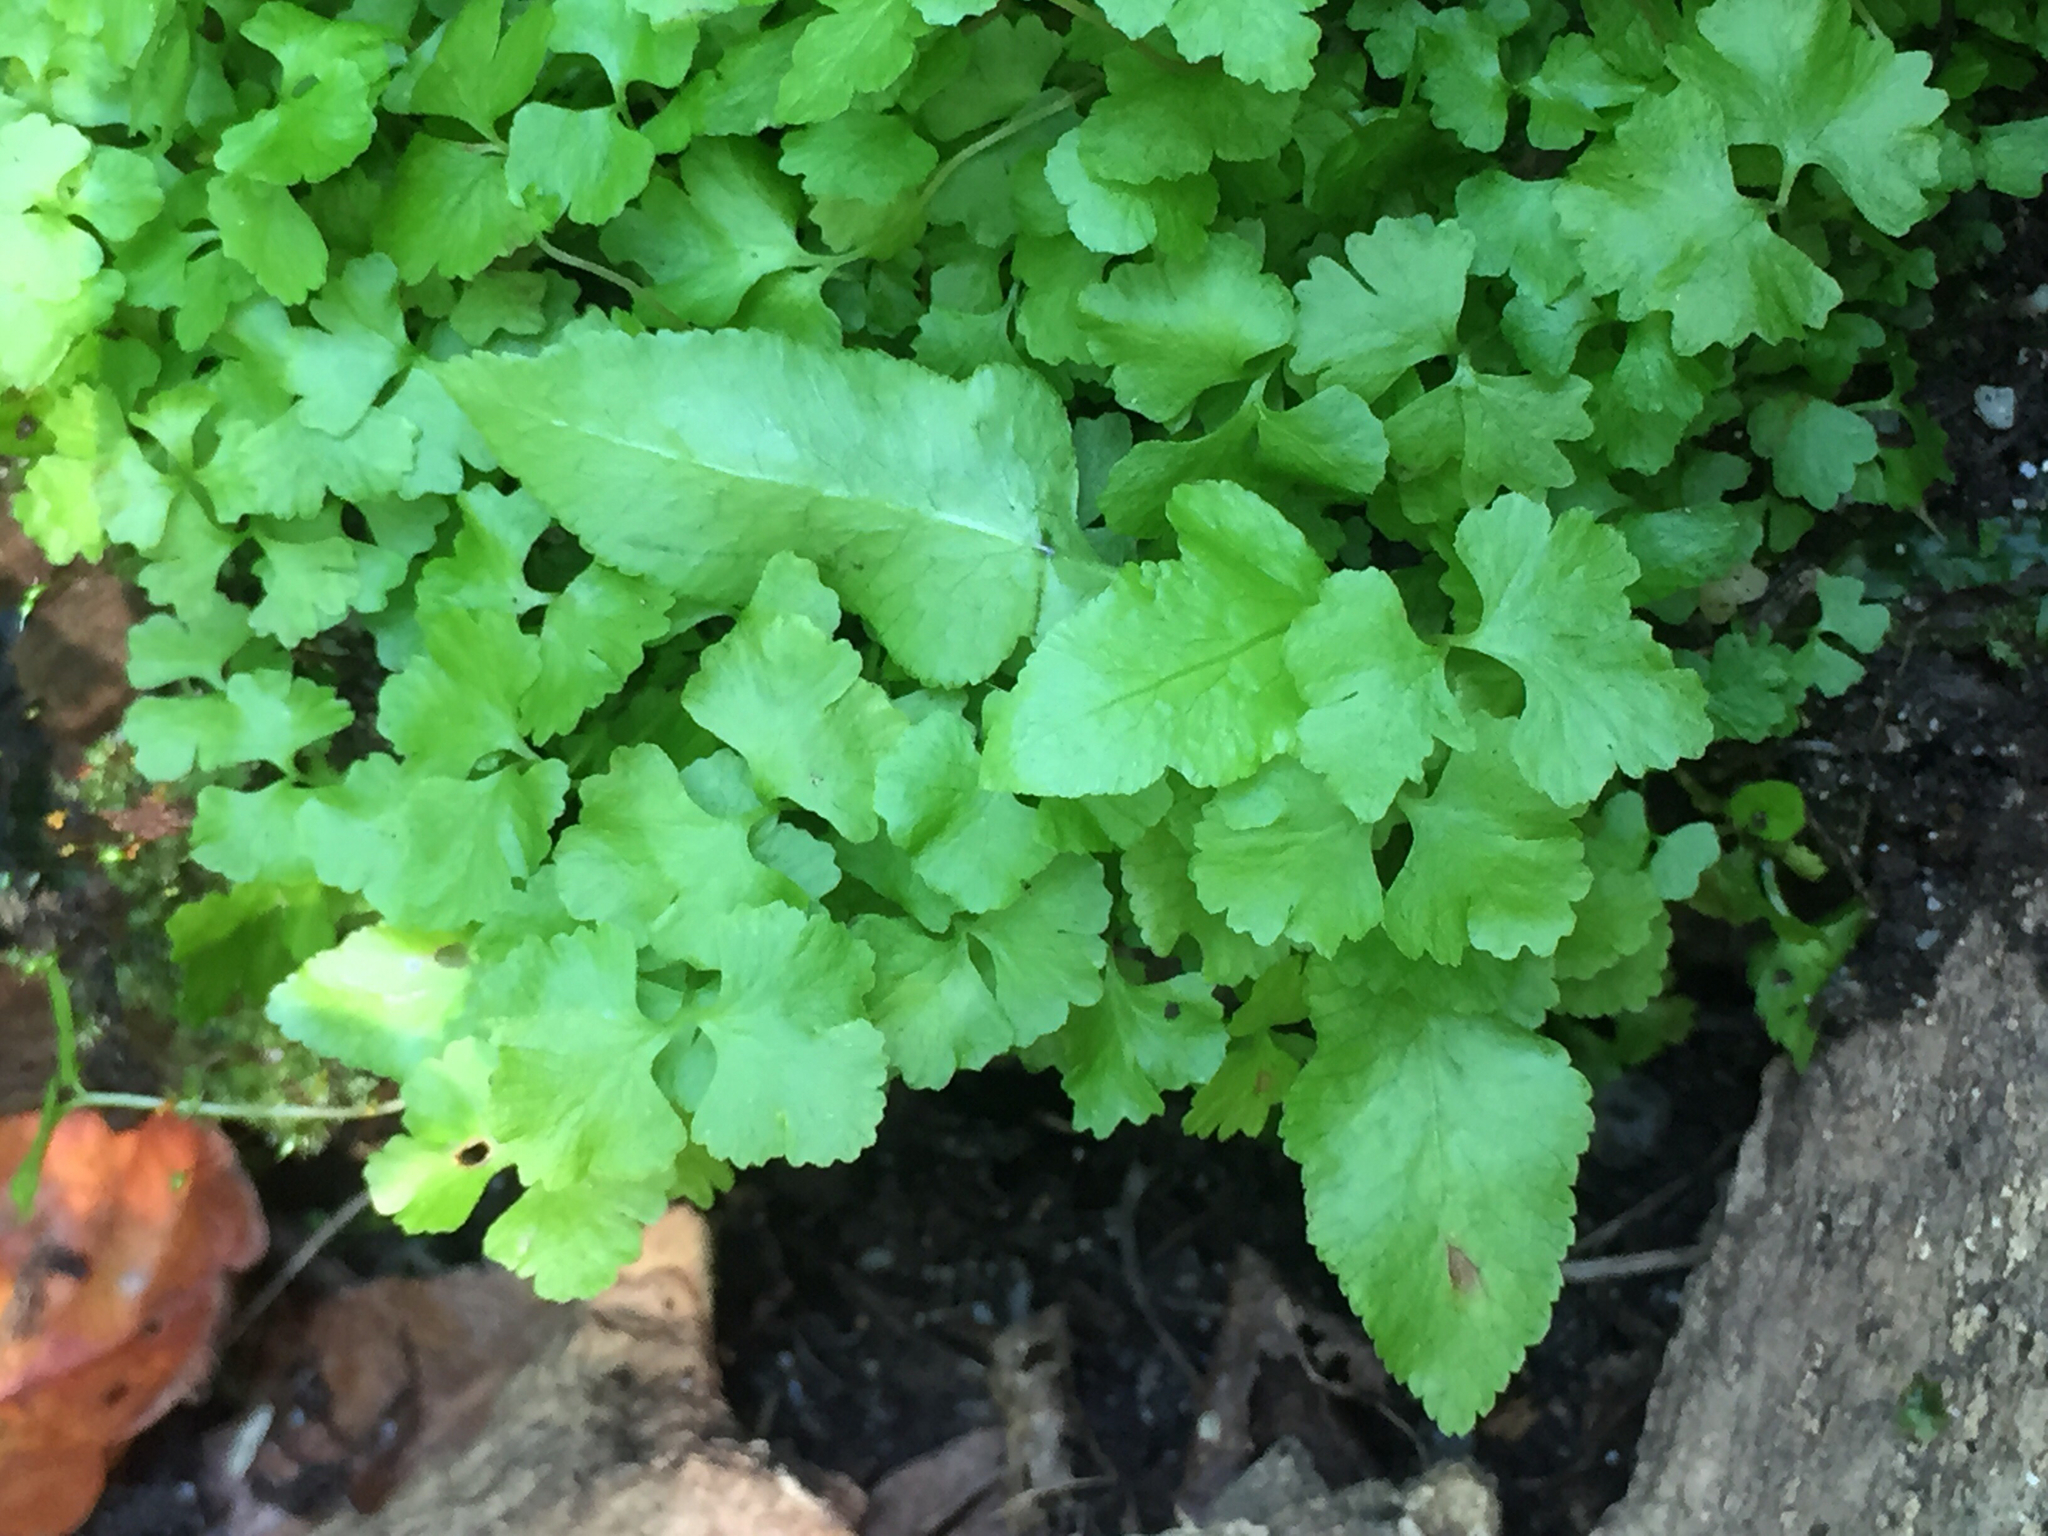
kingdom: Plantae
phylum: Tracheophyta
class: Polypodiopsida
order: Polypodiales
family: Blechnaceae
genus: Lorinseria
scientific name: Lorinseria areolata
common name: Dwarf chain fern
